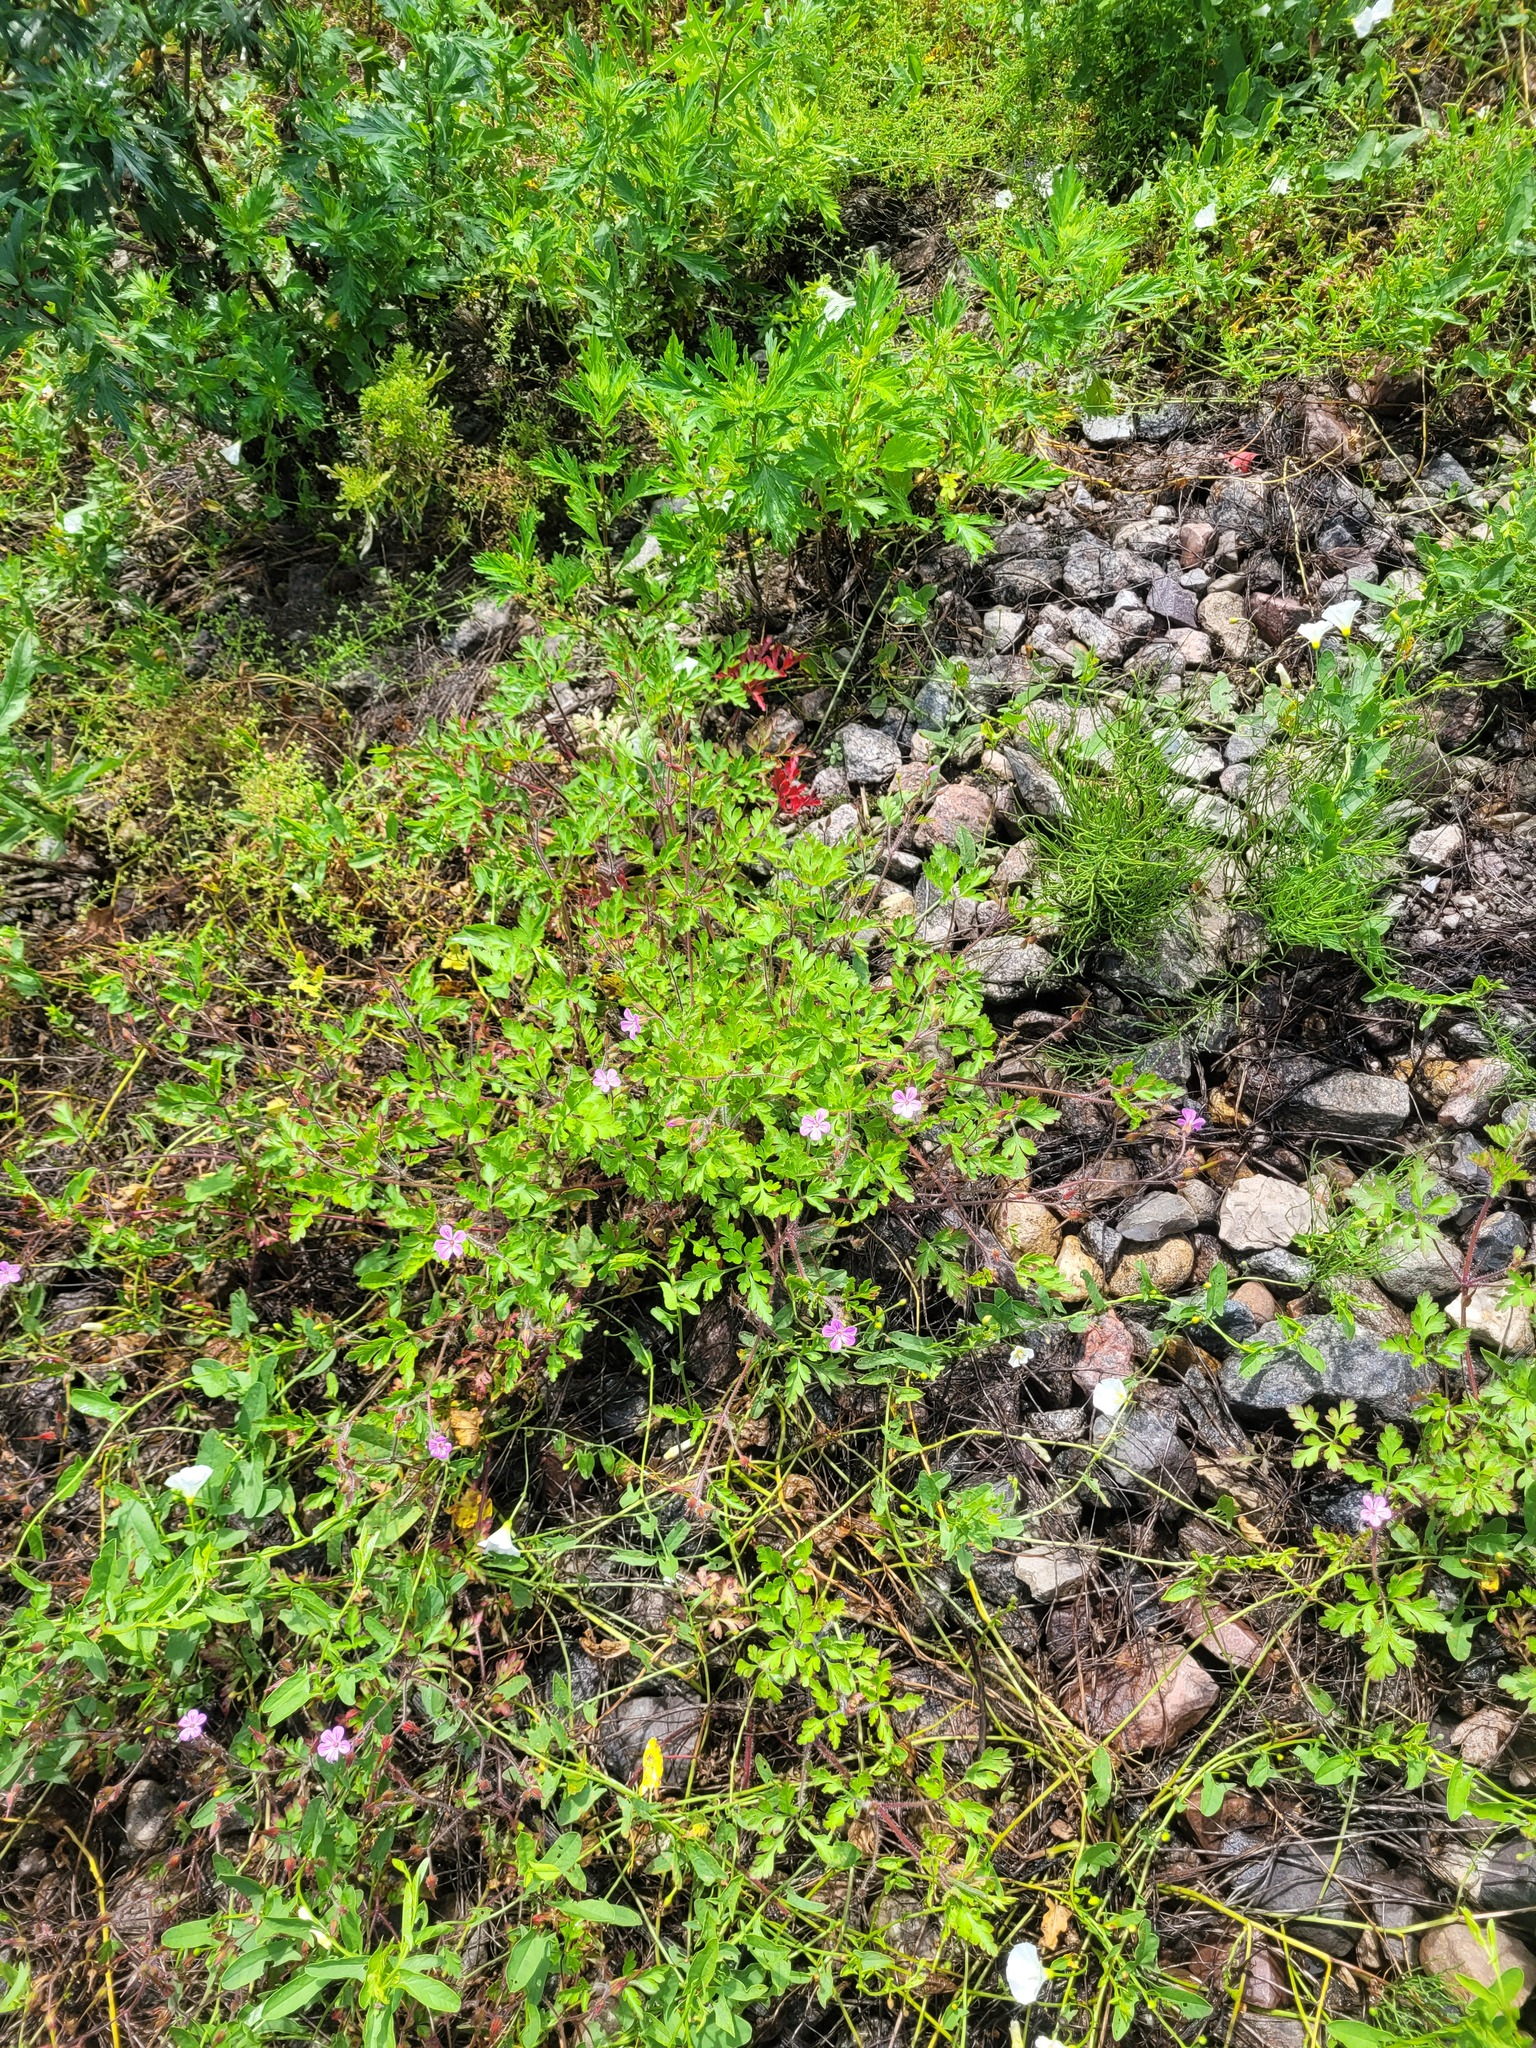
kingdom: Plantae
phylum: Tracheophyta
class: Magnoliopsida
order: Geraniales
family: Geraniaceae
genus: Geranium
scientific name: Geranium robertianum
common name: Herb-robert
